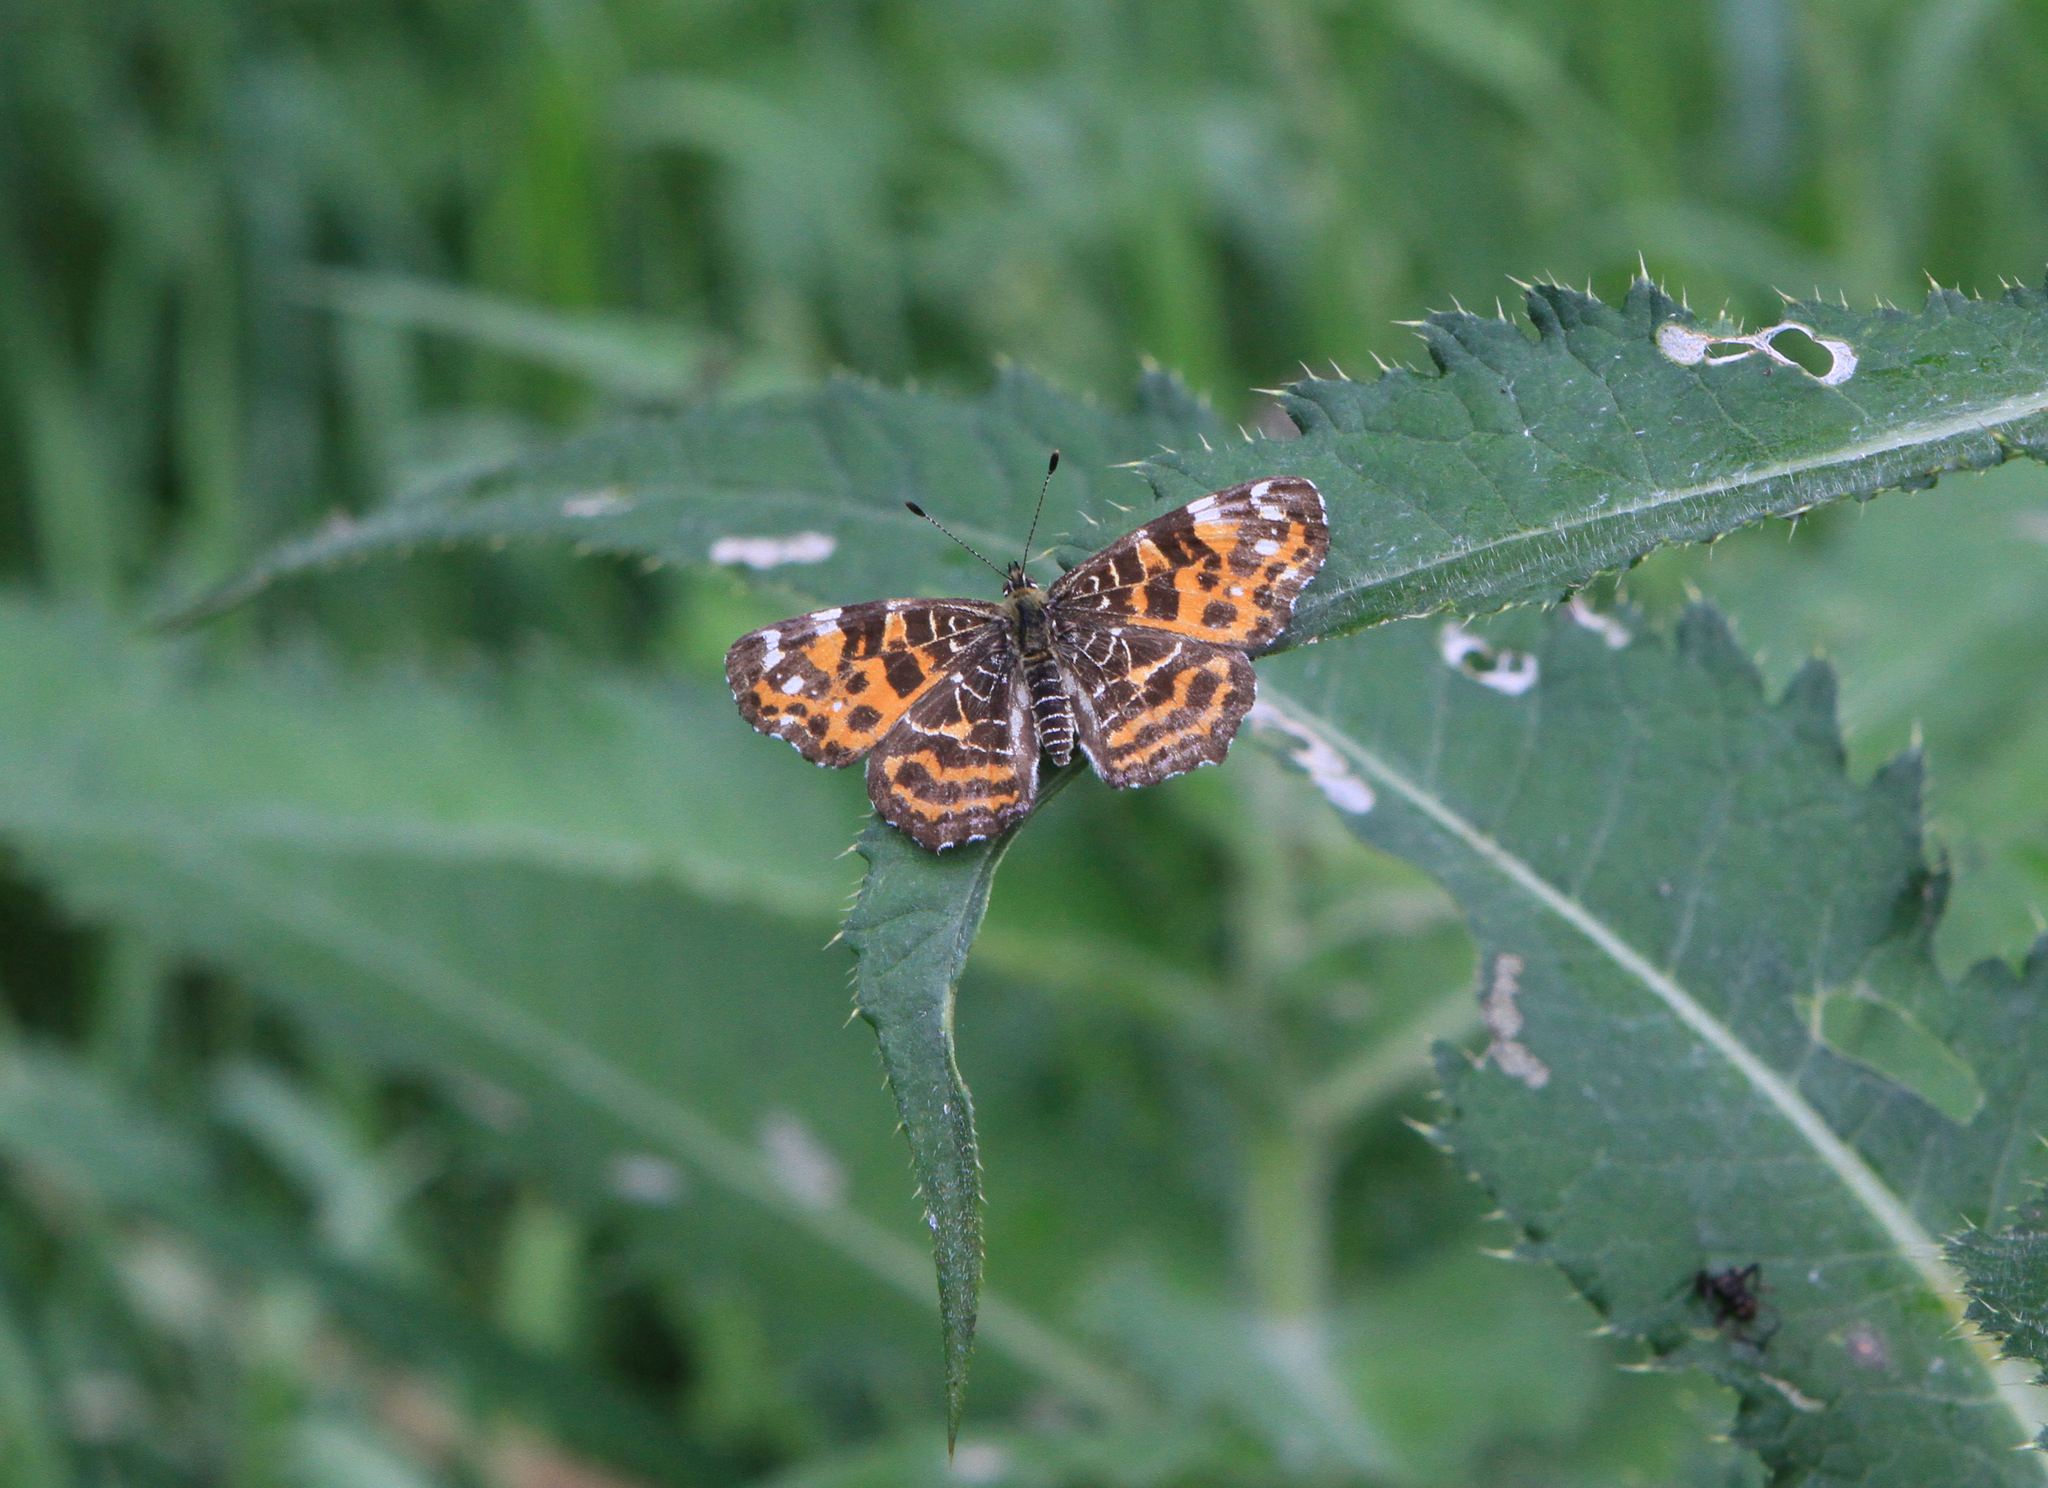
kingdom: Animalia
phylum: Arthropoda
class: Insecta
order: Lepidoptera
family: Nymphalidae
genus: Araschnia
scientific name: Araschnia levana
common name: Map butterfly
